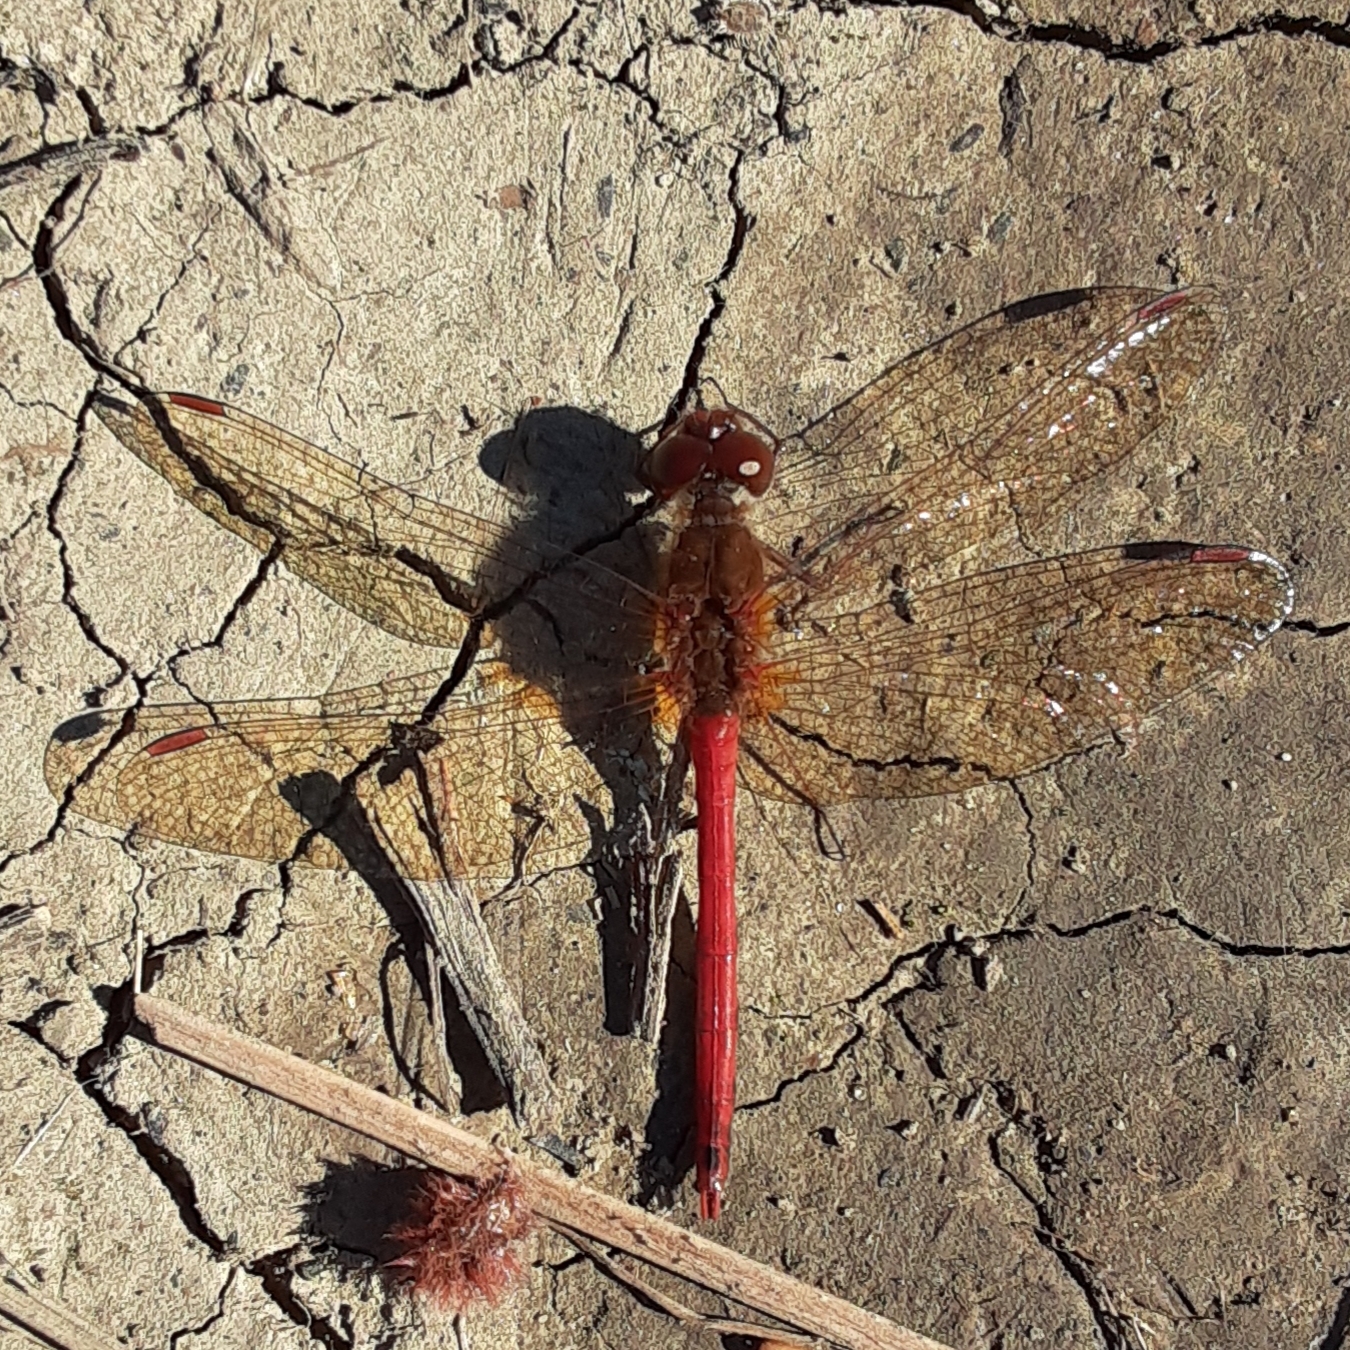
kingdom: Animalia
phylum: Arthropoda
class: Insecta
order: Odonata
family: Libellulidae
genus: Sympetrum
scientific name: Sympetrum vicinum
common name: Autumn meadowhawk
